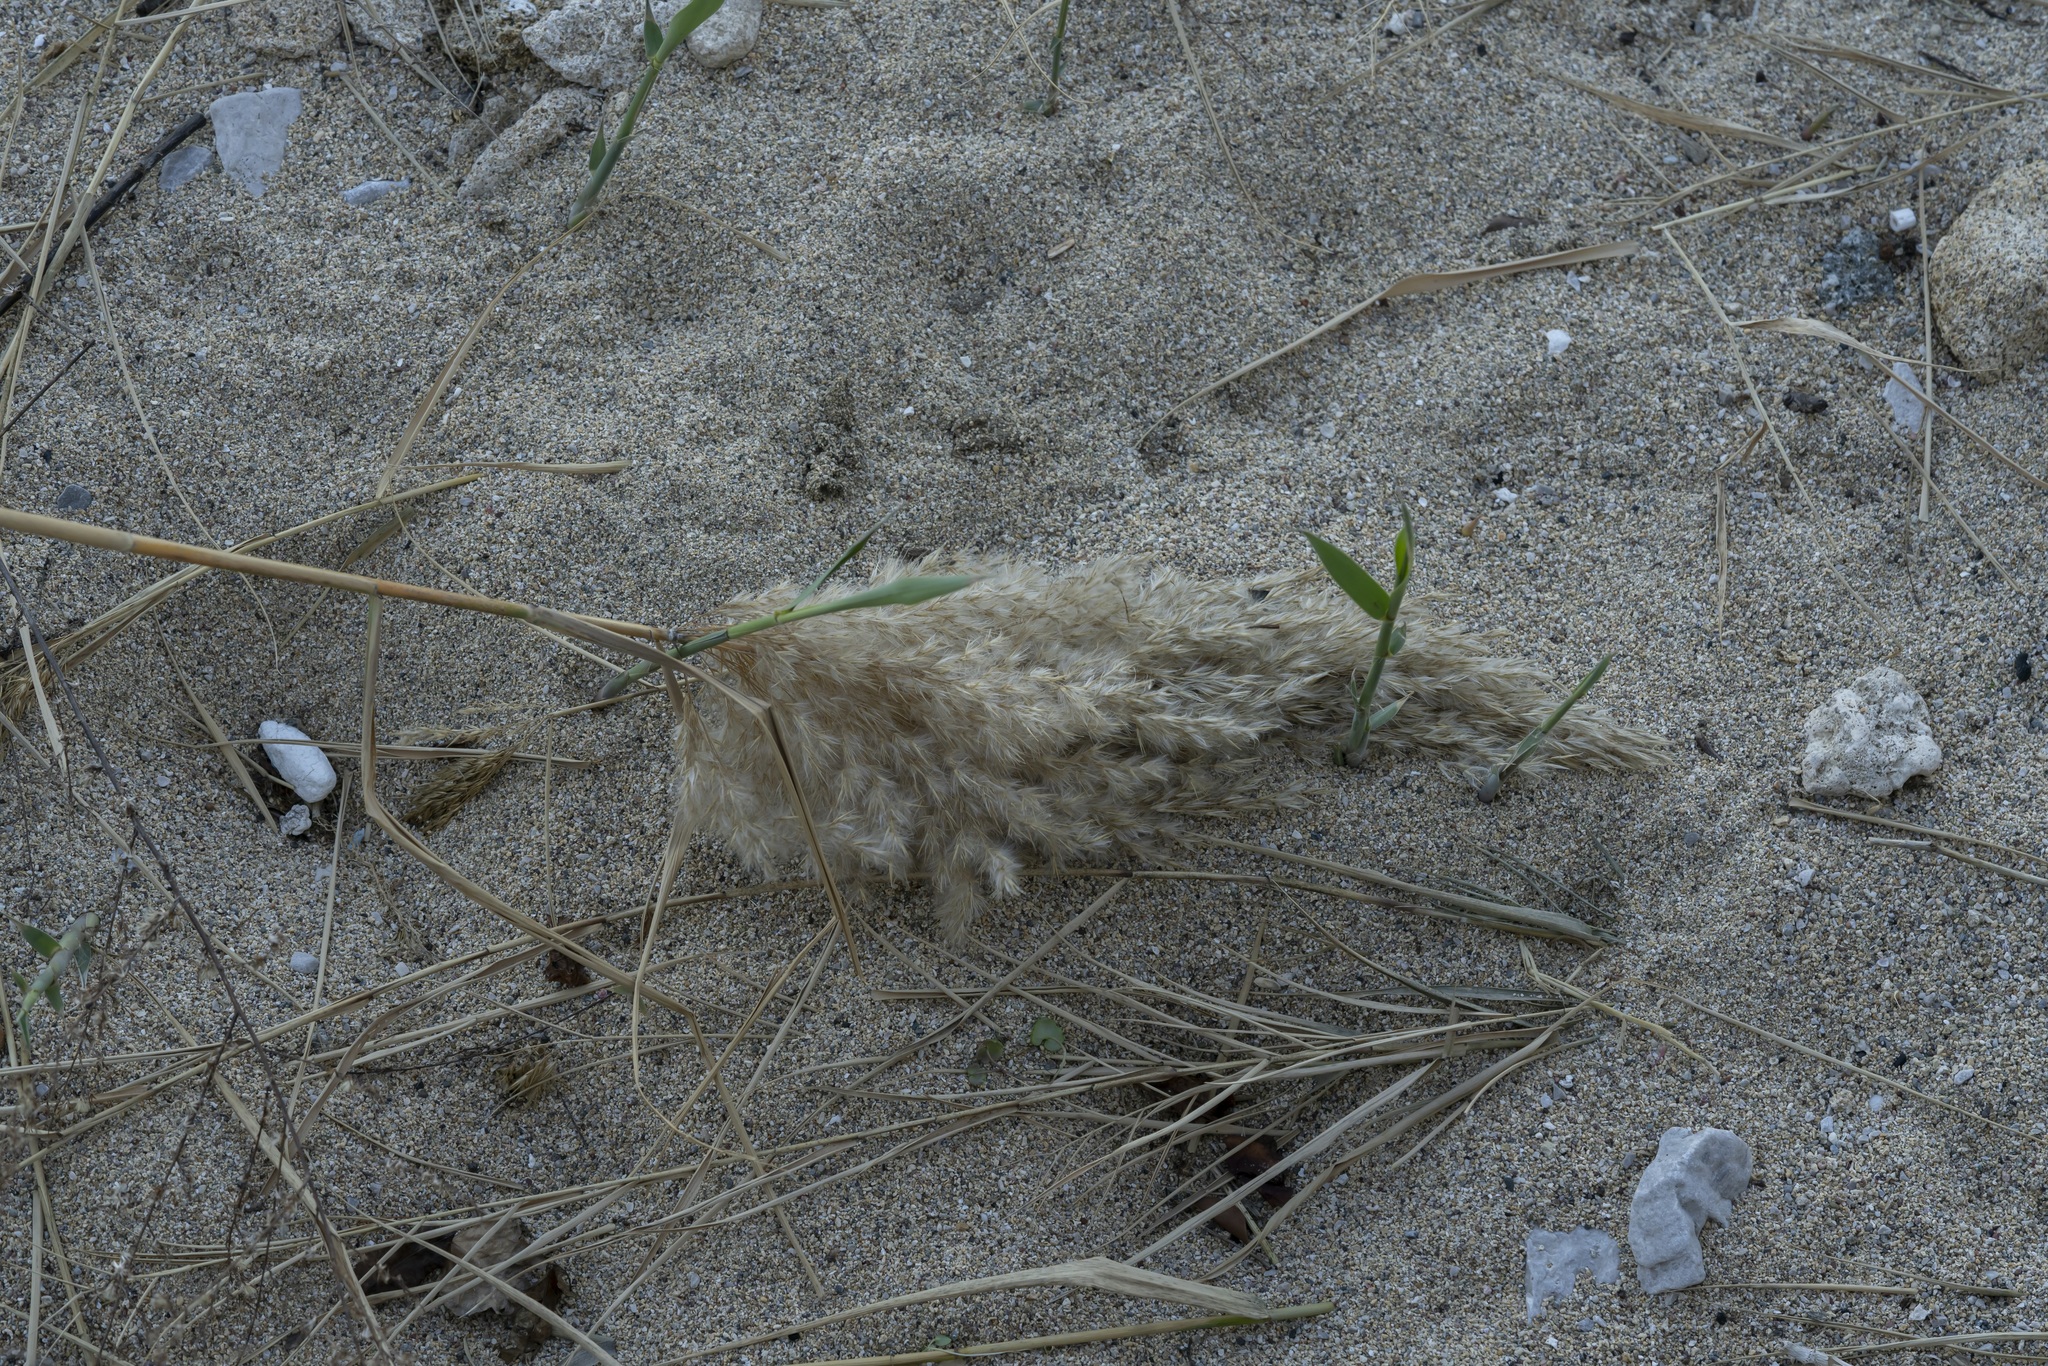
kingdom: Plantae
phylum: Tracheophyta
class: Liliopsida
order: Poales
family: Poaceae
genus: Phragmites
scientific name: Phragmites australis
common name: Common reed
